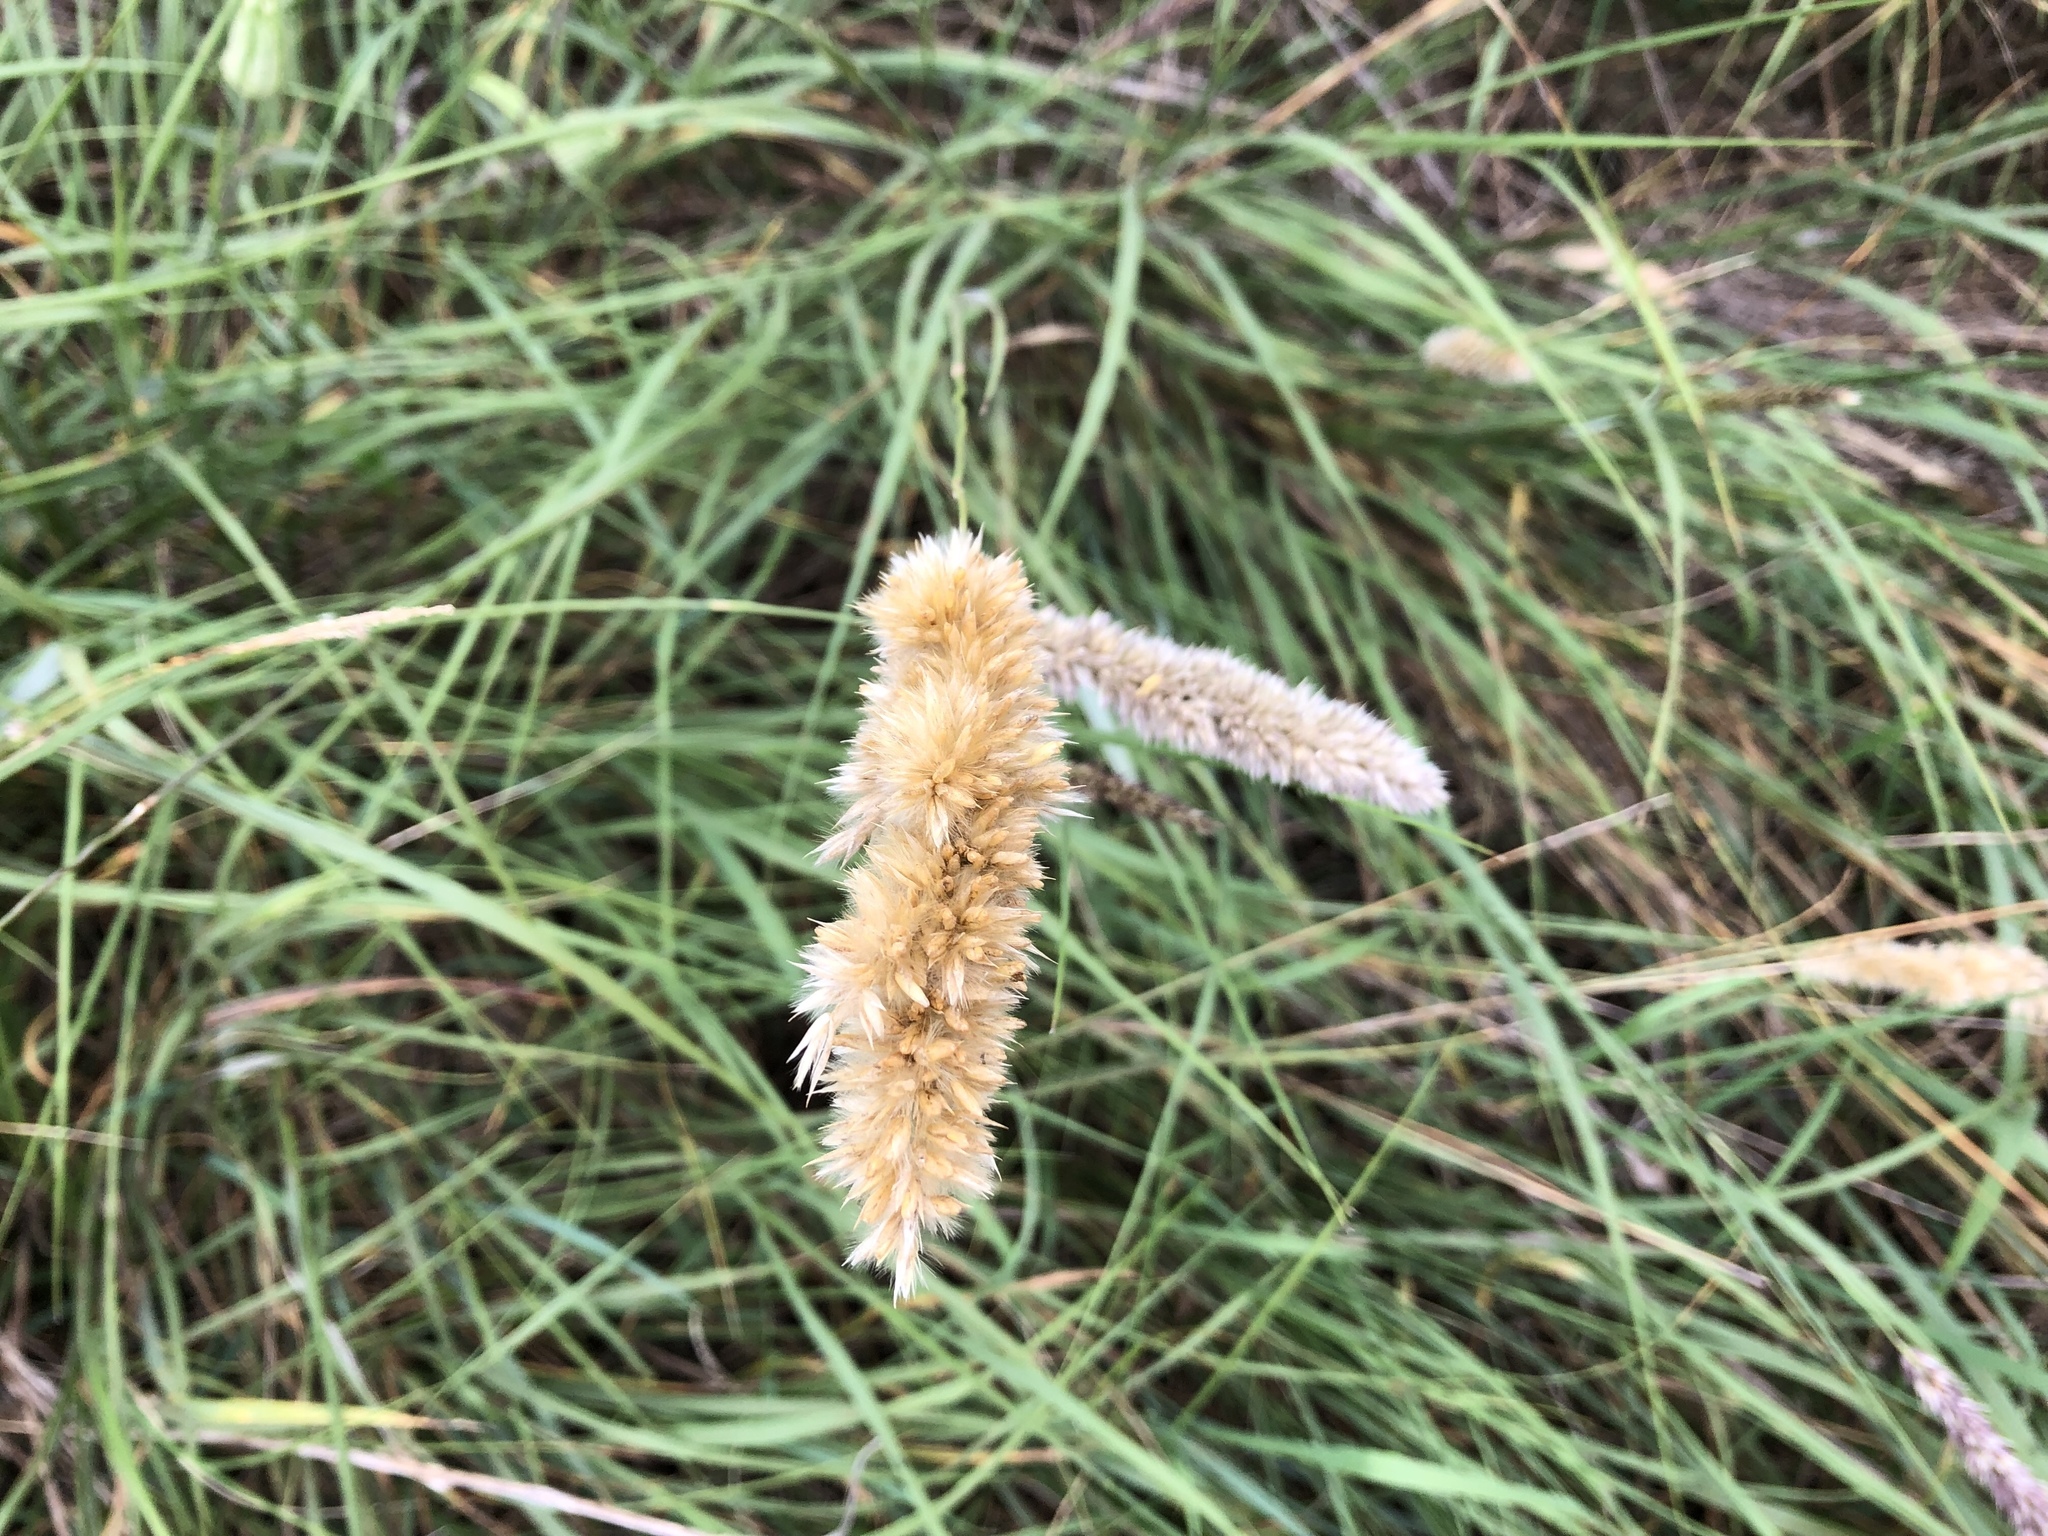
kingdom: Plantae
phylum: Tracheophyta
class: Liliopsida
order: Poales
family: Poaceae
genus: Melica
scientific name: Melica transsilvanica
